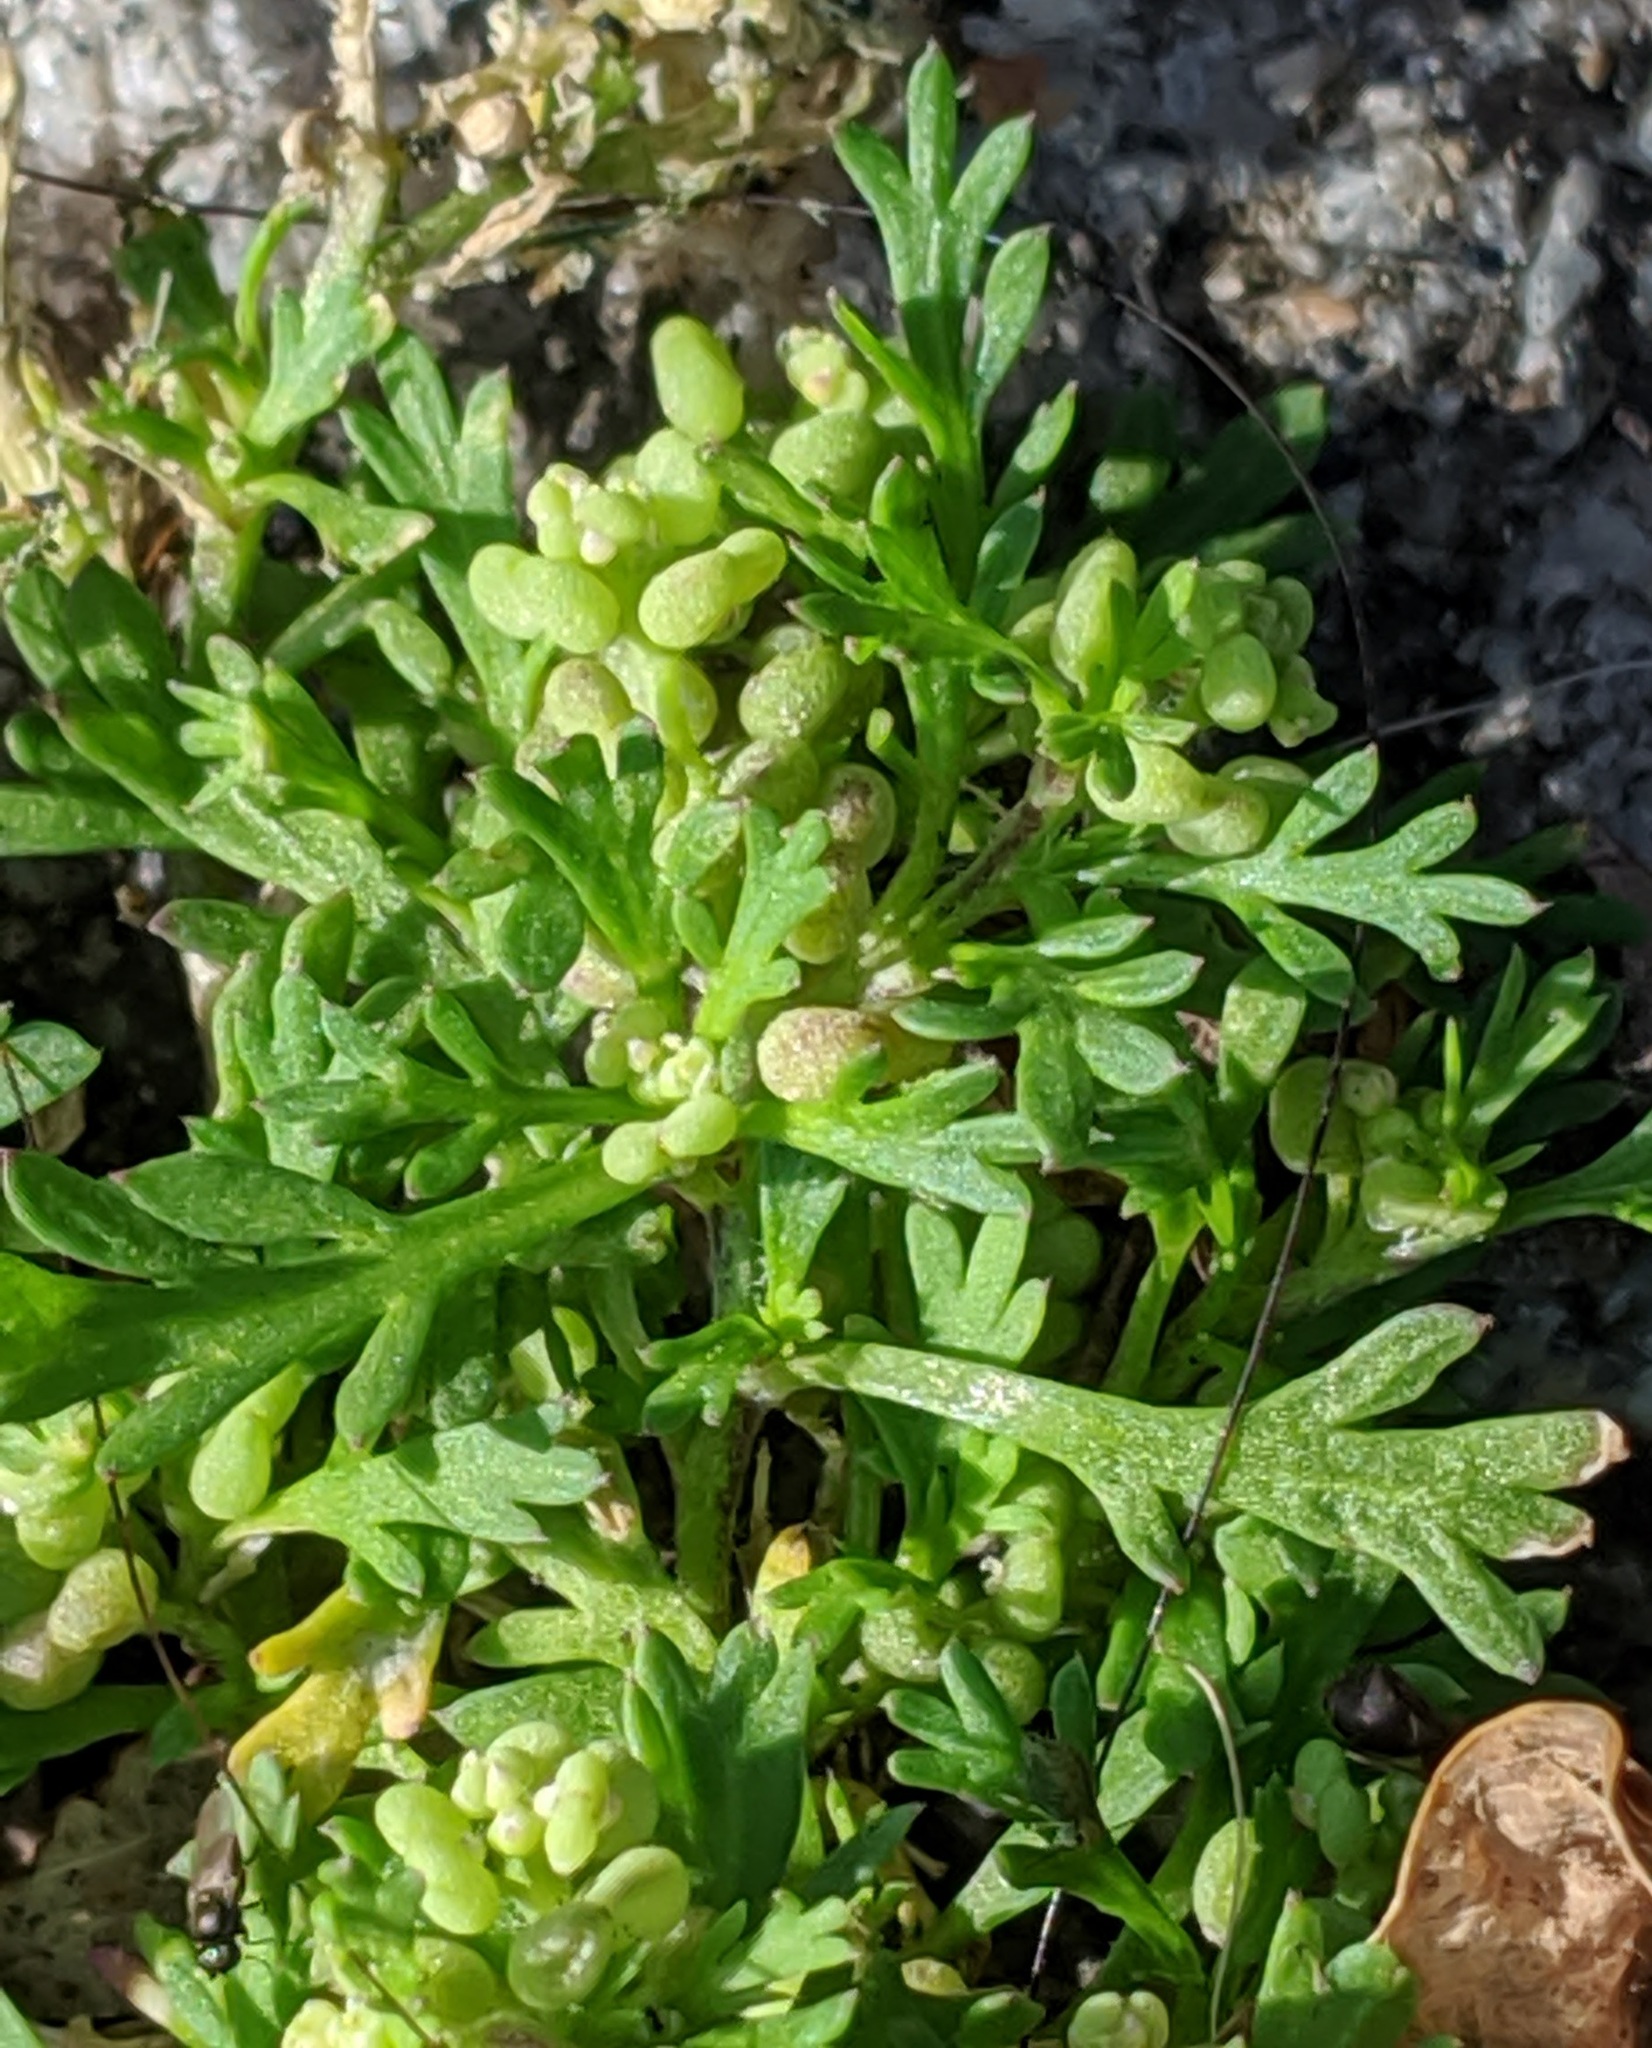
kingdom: Plantae
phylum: Tracheophyta
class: Magnoliopsida
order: Brassicales
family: Brassicaceae
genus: Lepidium
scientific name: Lepidium didymum
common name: Lesser swinecress
